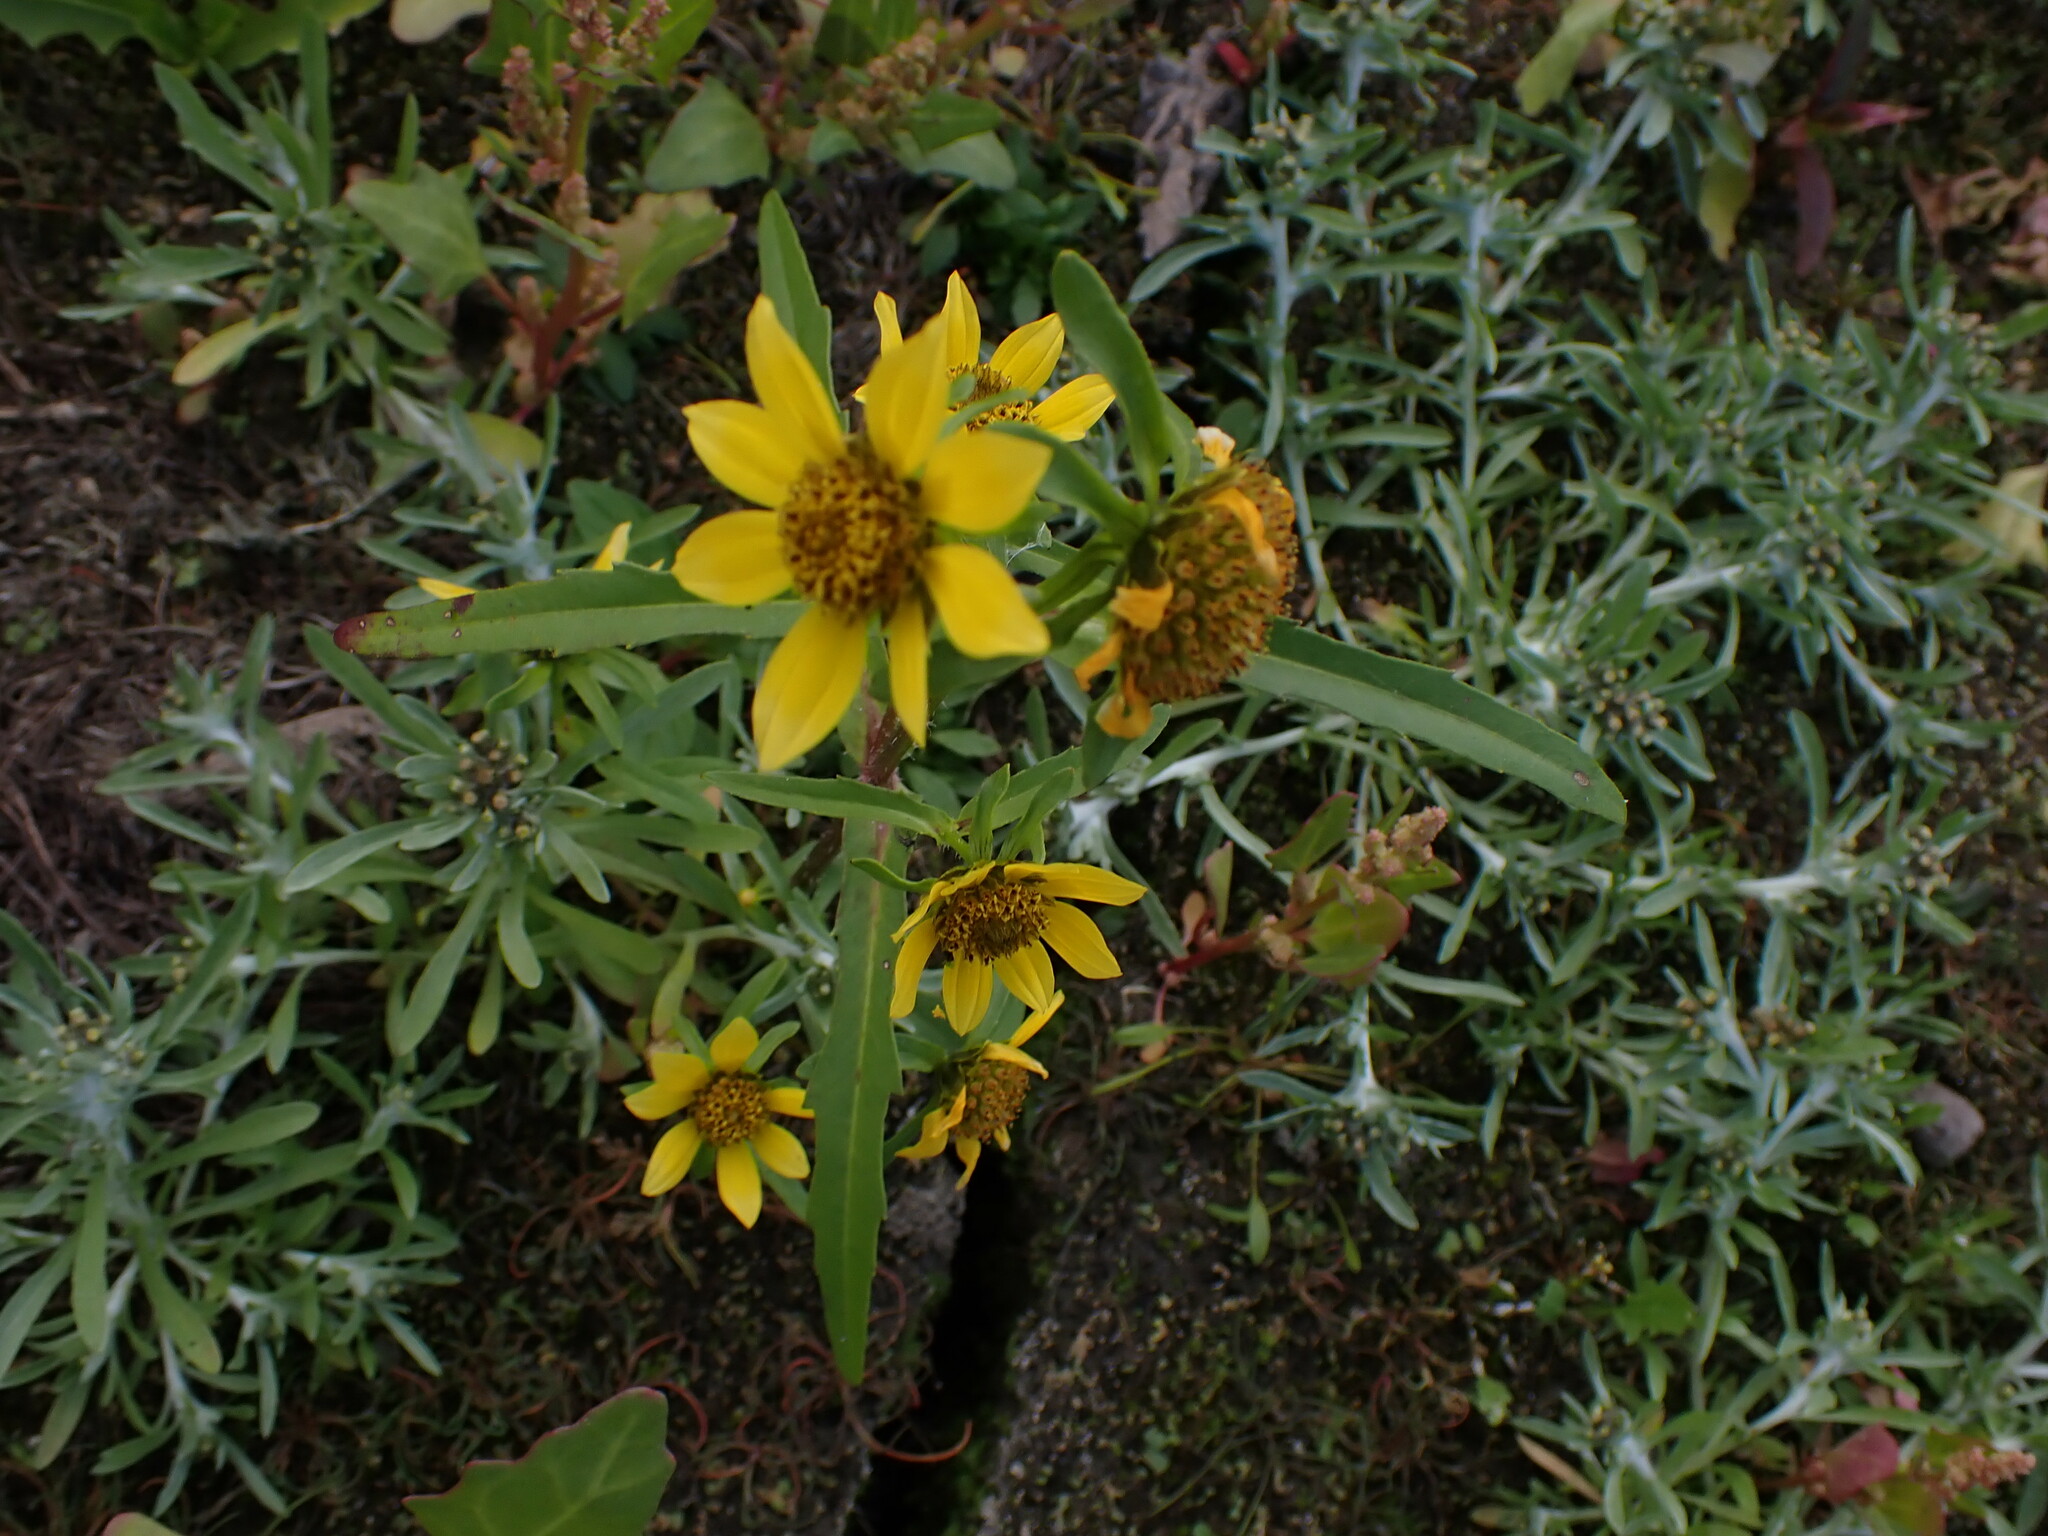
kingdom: Plantae
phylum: Tracheophyta
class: Magnoliopsida
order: Asterales
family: Asteraceae
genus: Bidens
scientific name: Bidens cernua
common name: Nodding bur-marigold
